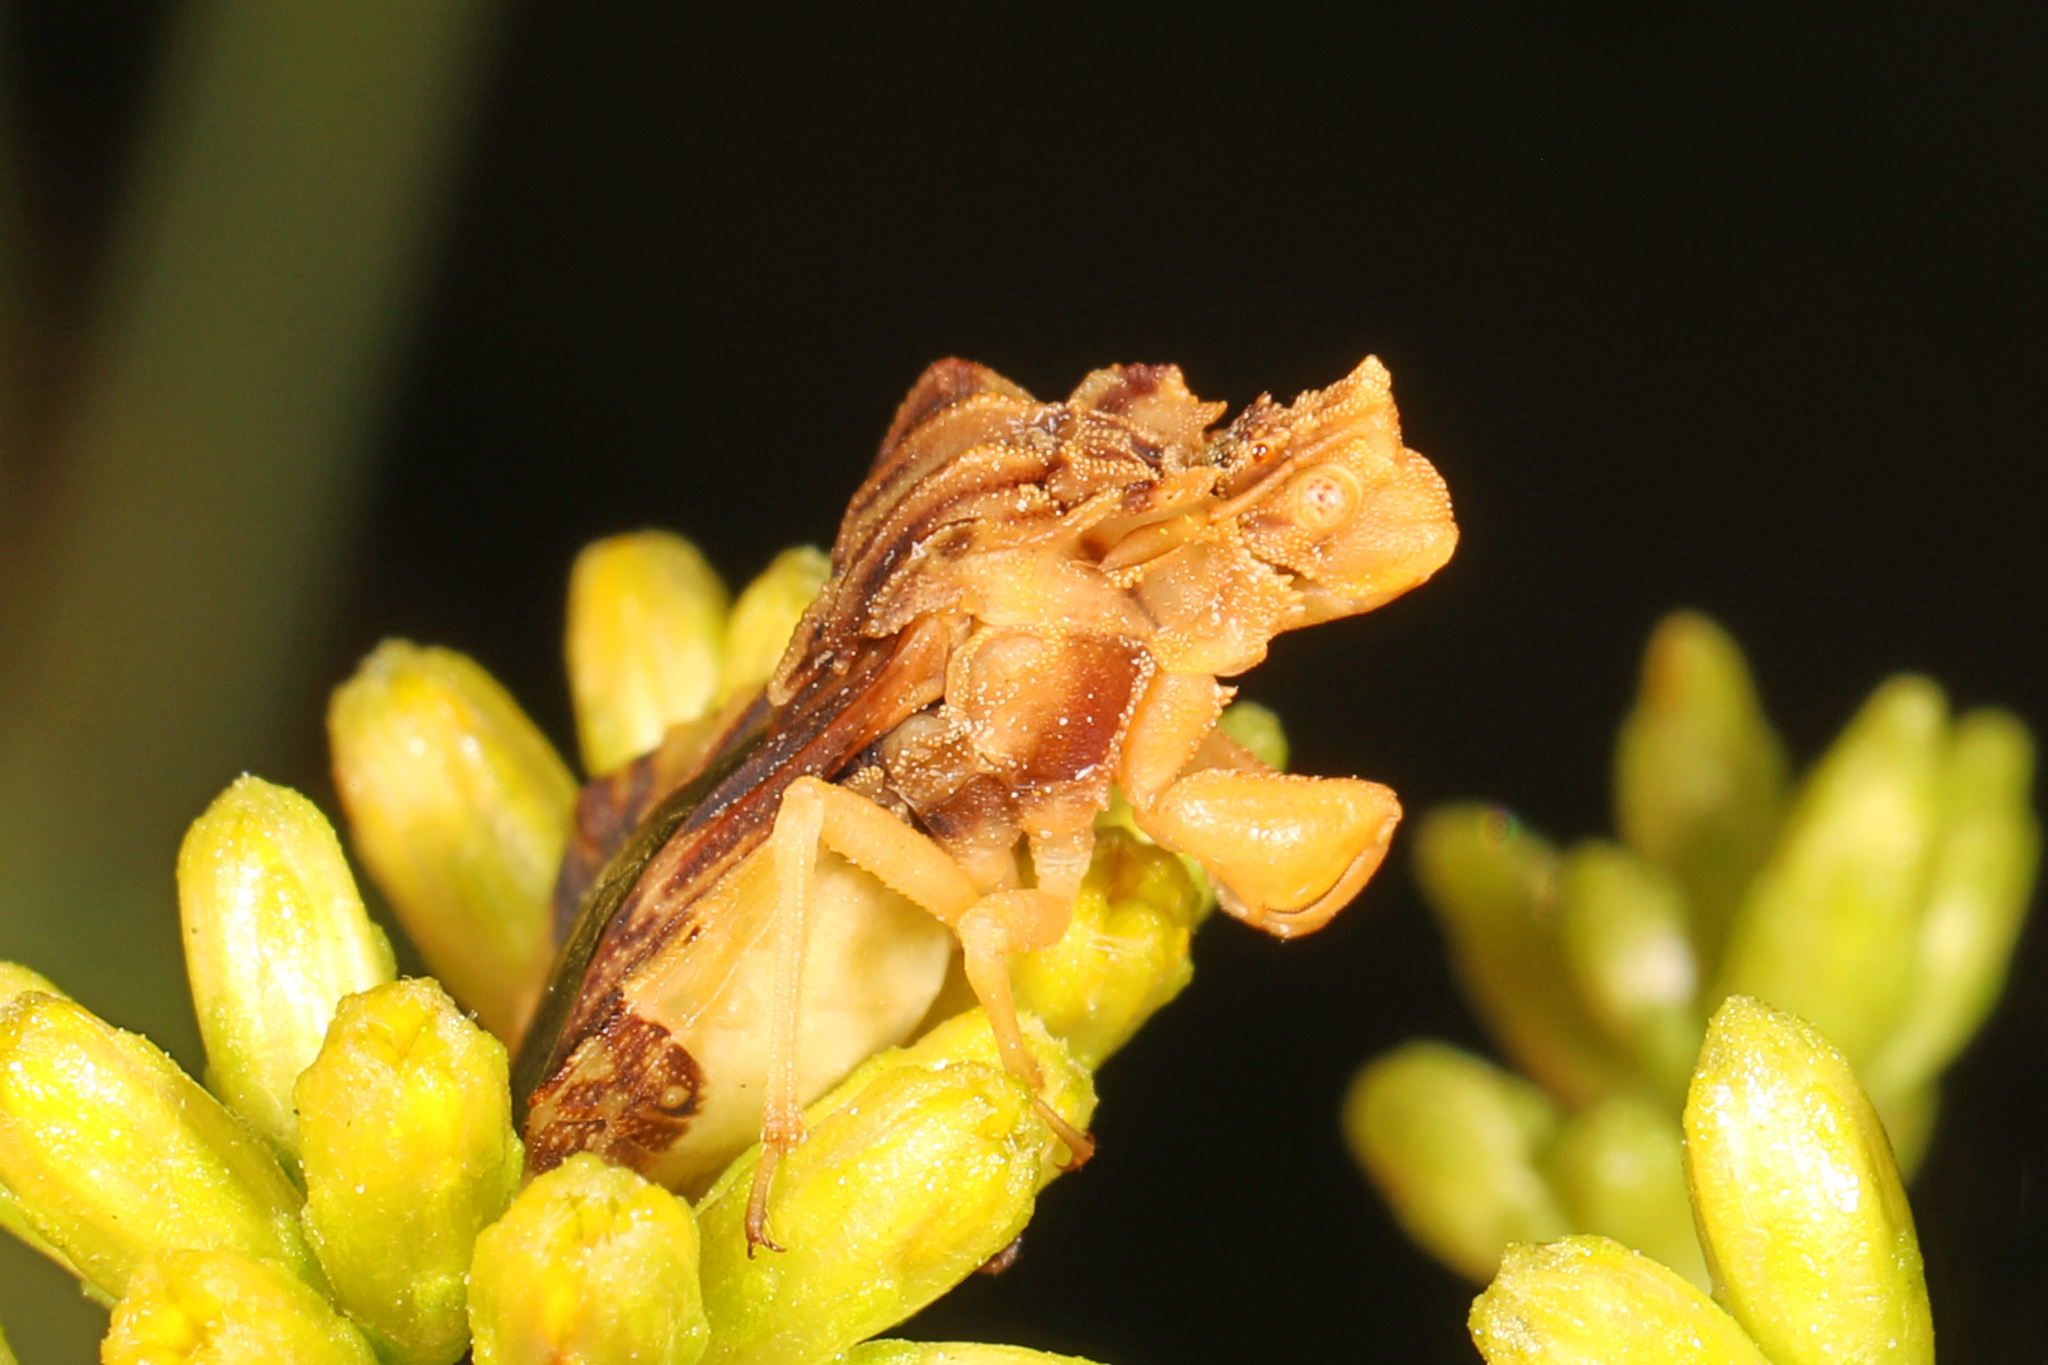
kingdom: Animalia
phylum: Arthropoda
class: Insecta
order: Hemiptera
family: Reduviidae
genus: Phymata
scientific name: Phymata fasciata
